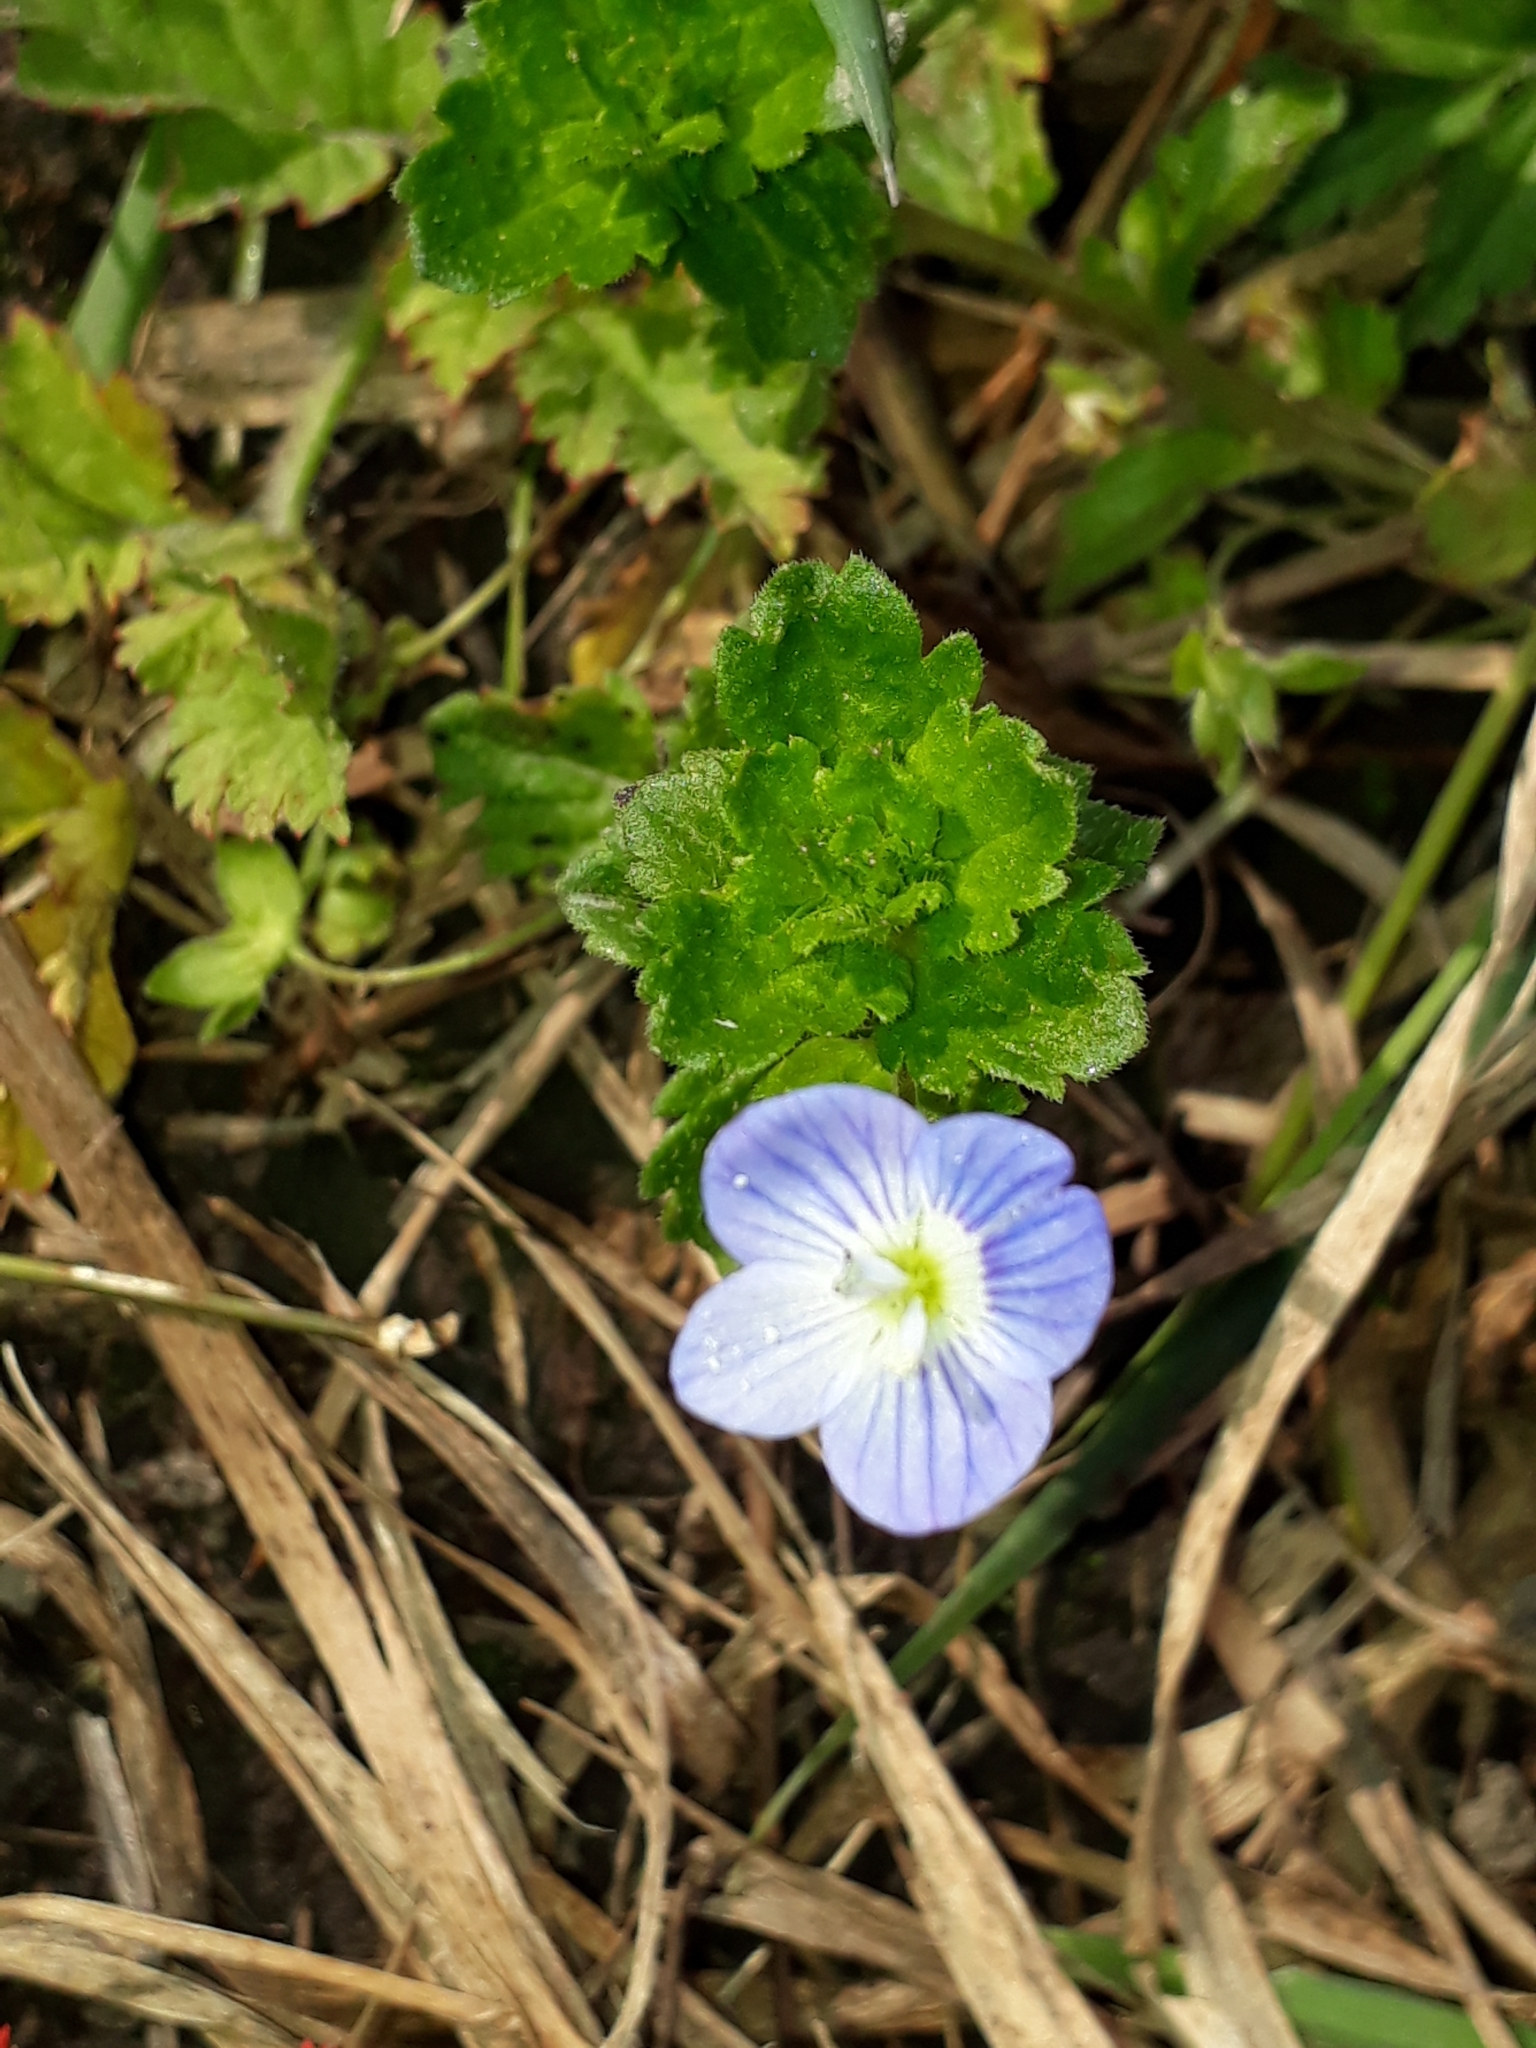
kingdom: Plantae
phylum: Tracheophyta
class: Magnoliopsida
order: Lamiales
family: Plantaginaceae
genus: Veronica
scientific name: Veronica persica
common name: Common field-speedwell
